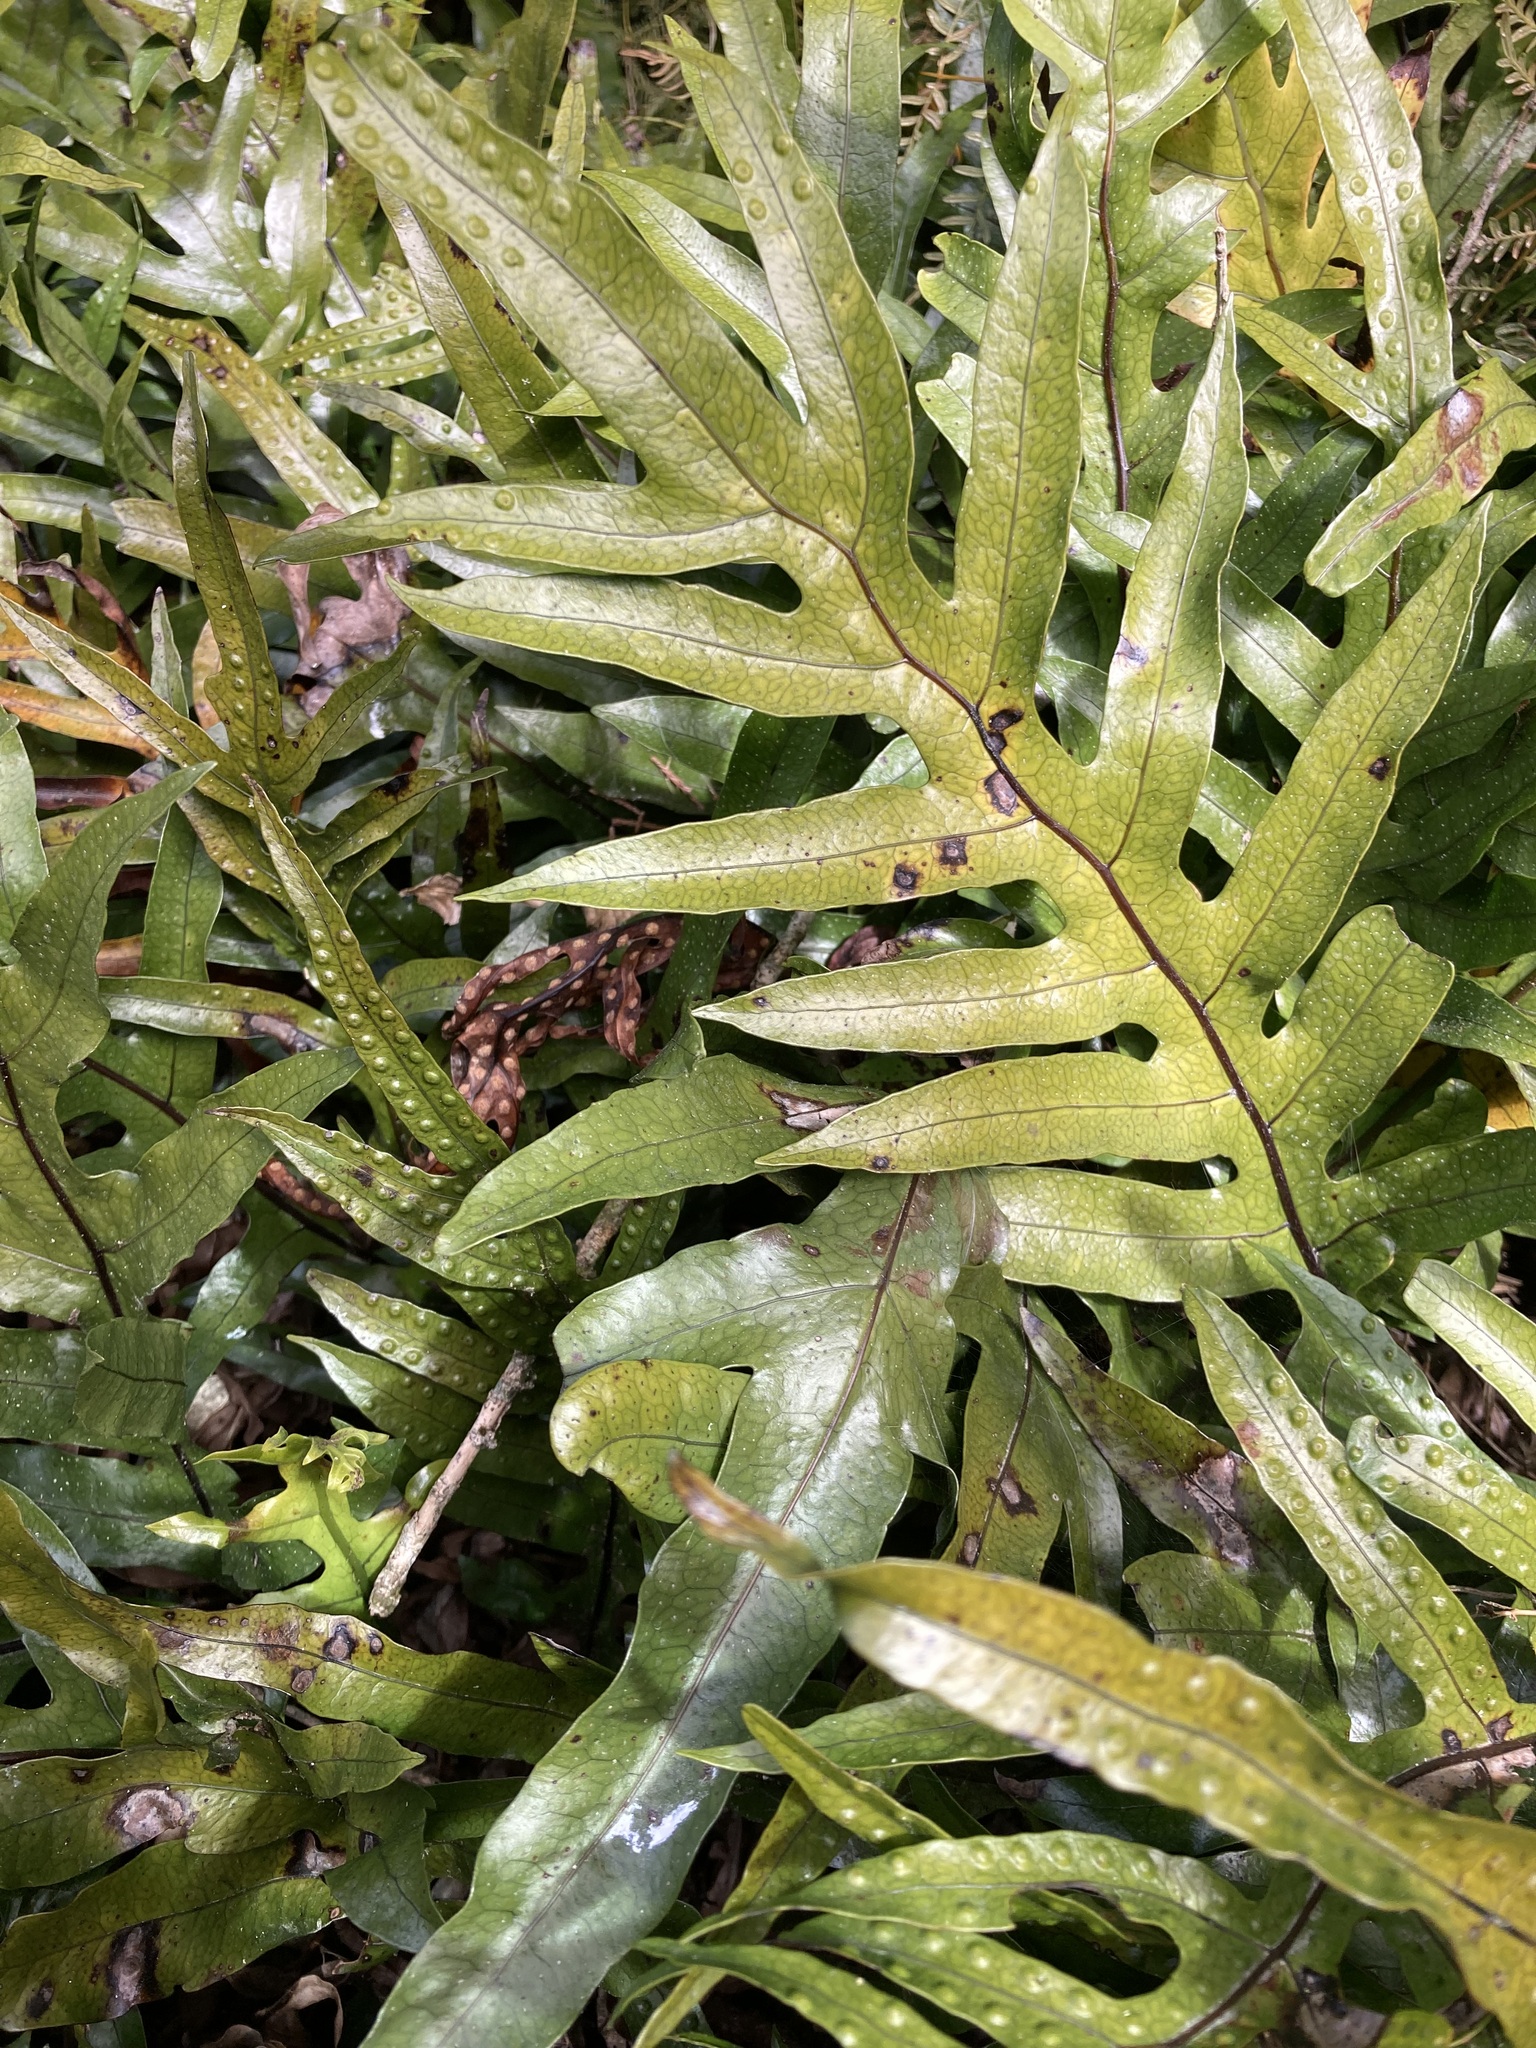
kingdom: Plantae
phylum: Tracheophyta
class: Polypodiopsida
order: Polypodiales
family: Polypodiaceae
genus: Lecanopteris
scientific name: Lecanopteris pustulata
